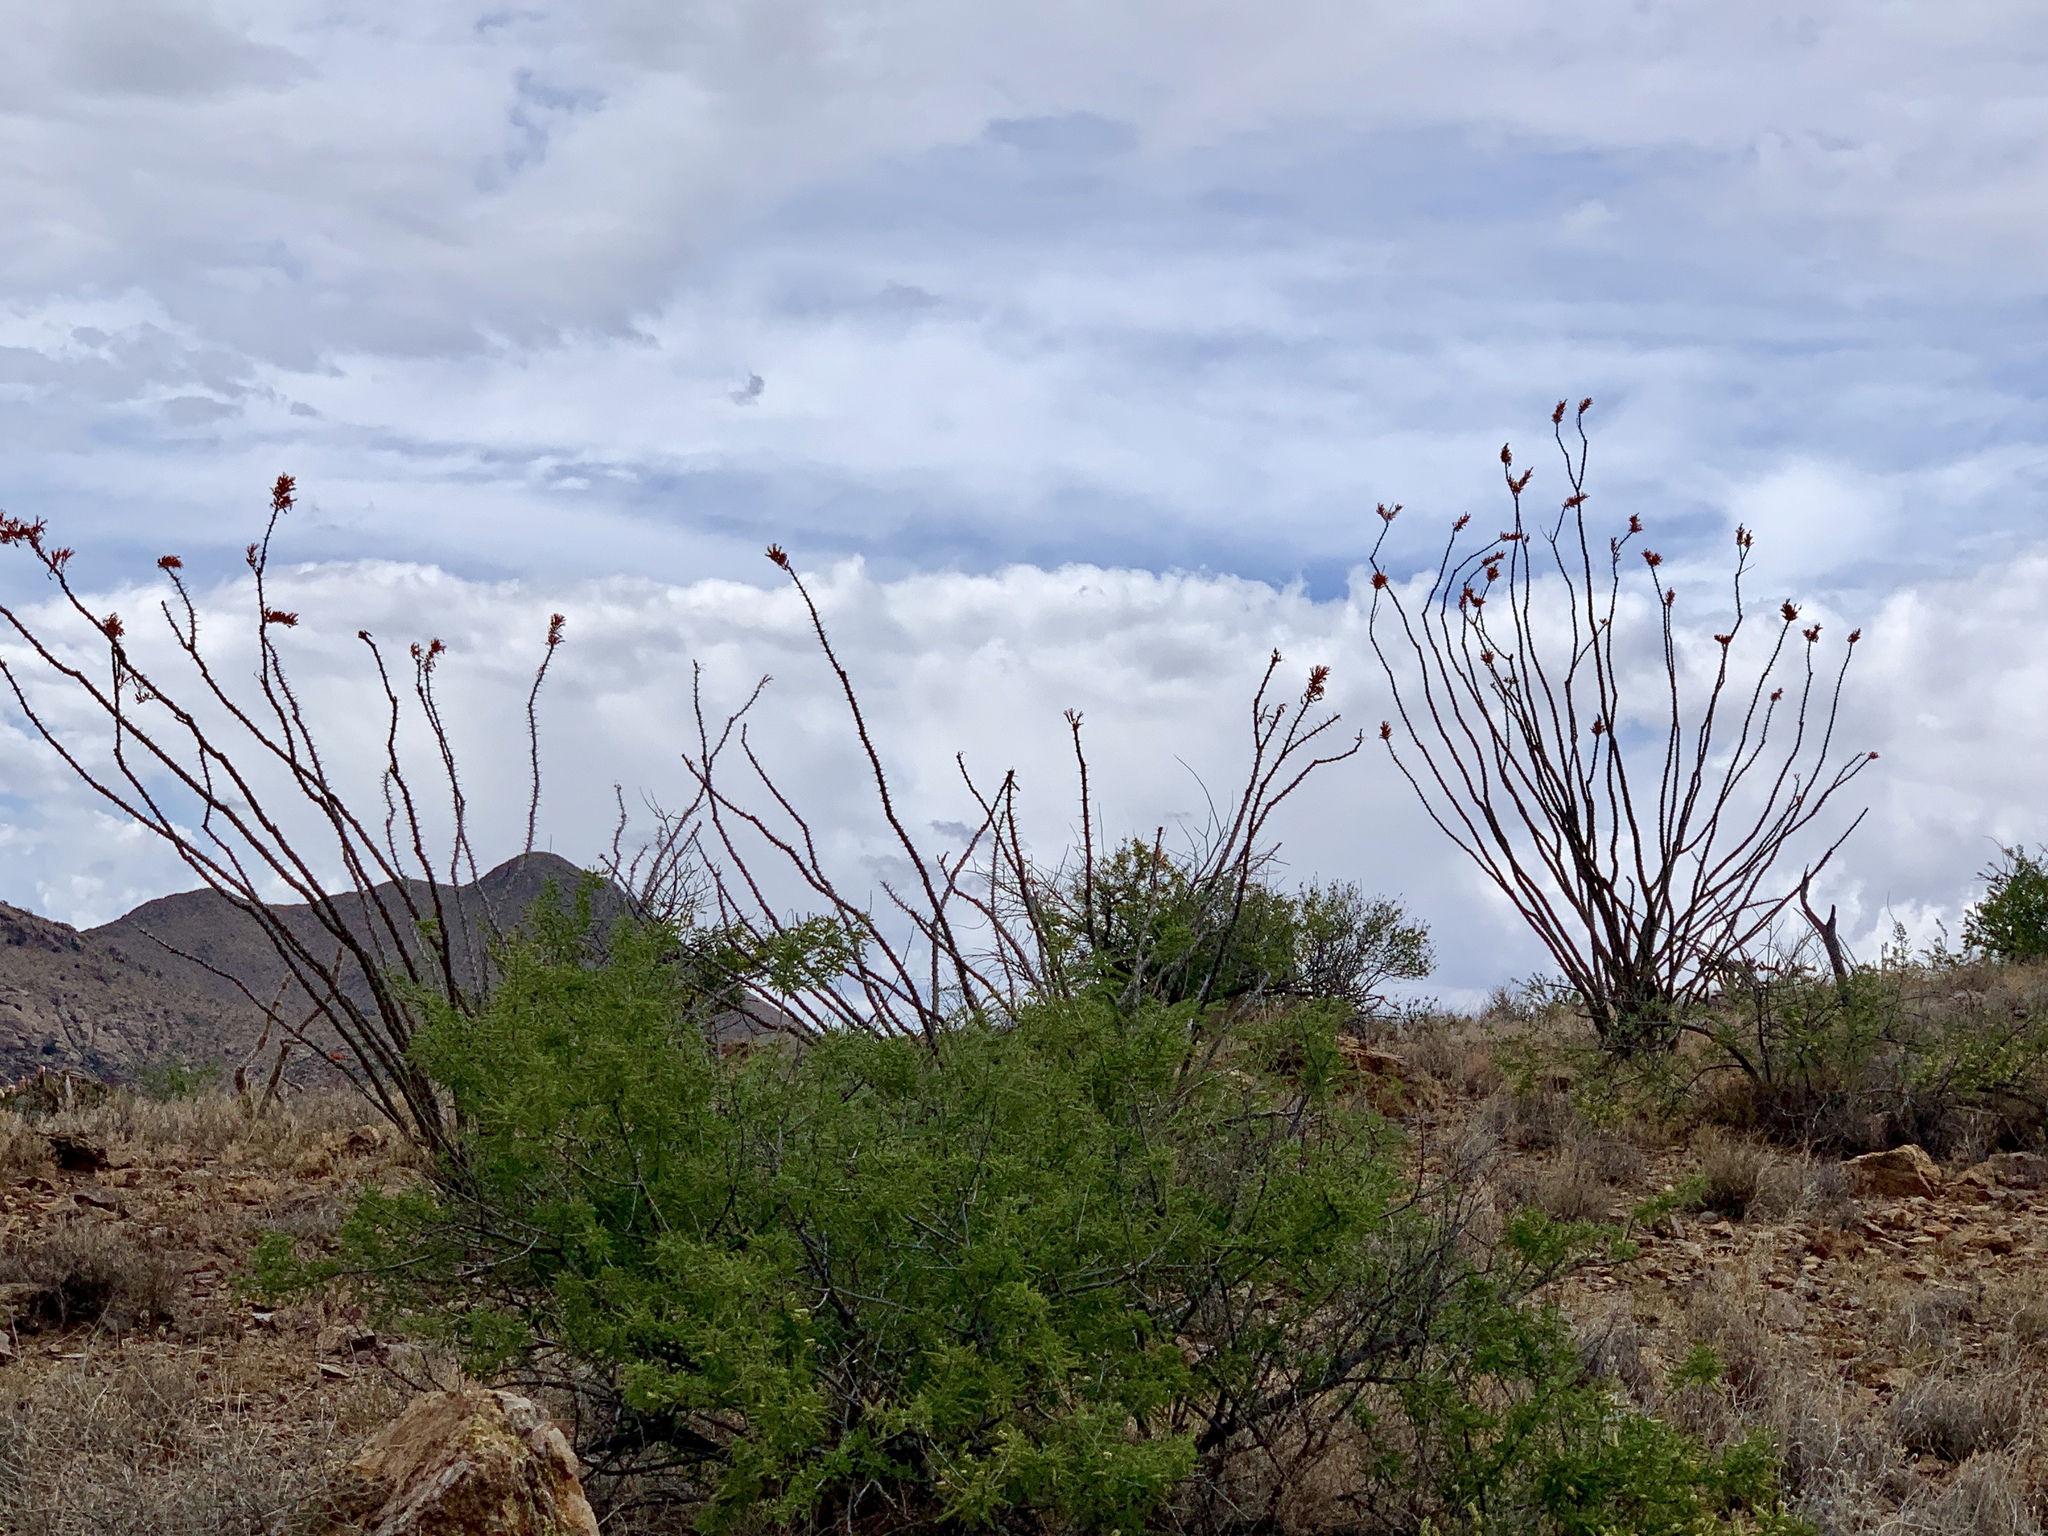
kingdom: Plantae
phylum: Tracheophyta
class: Magnoliopsida
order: Ericales
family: Fouquieriaceae
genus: Fouquieria
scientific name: Fouquieria splendens
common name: Vine-cactus
